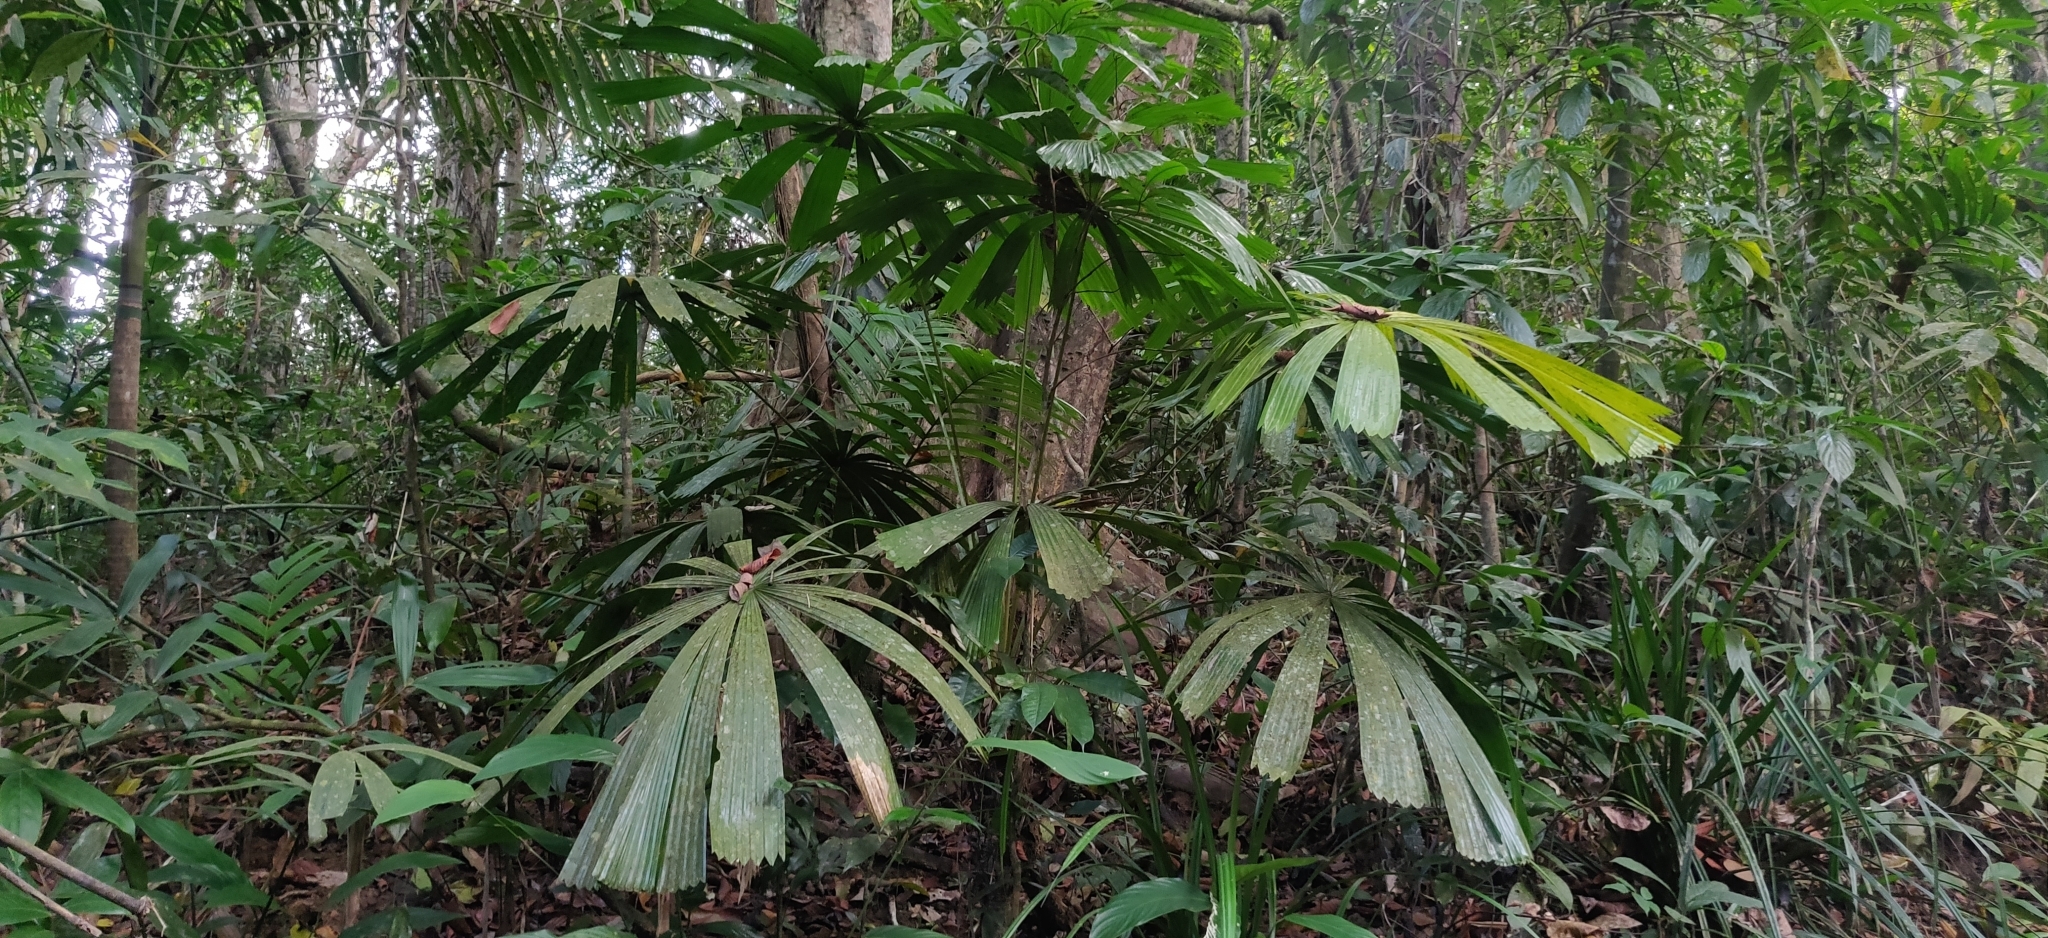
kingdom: Plantae
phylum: Tracheophyta
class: Liliopsida
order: Arecales
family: Arecaceae
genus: Licuala
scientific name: Licuala peltata
